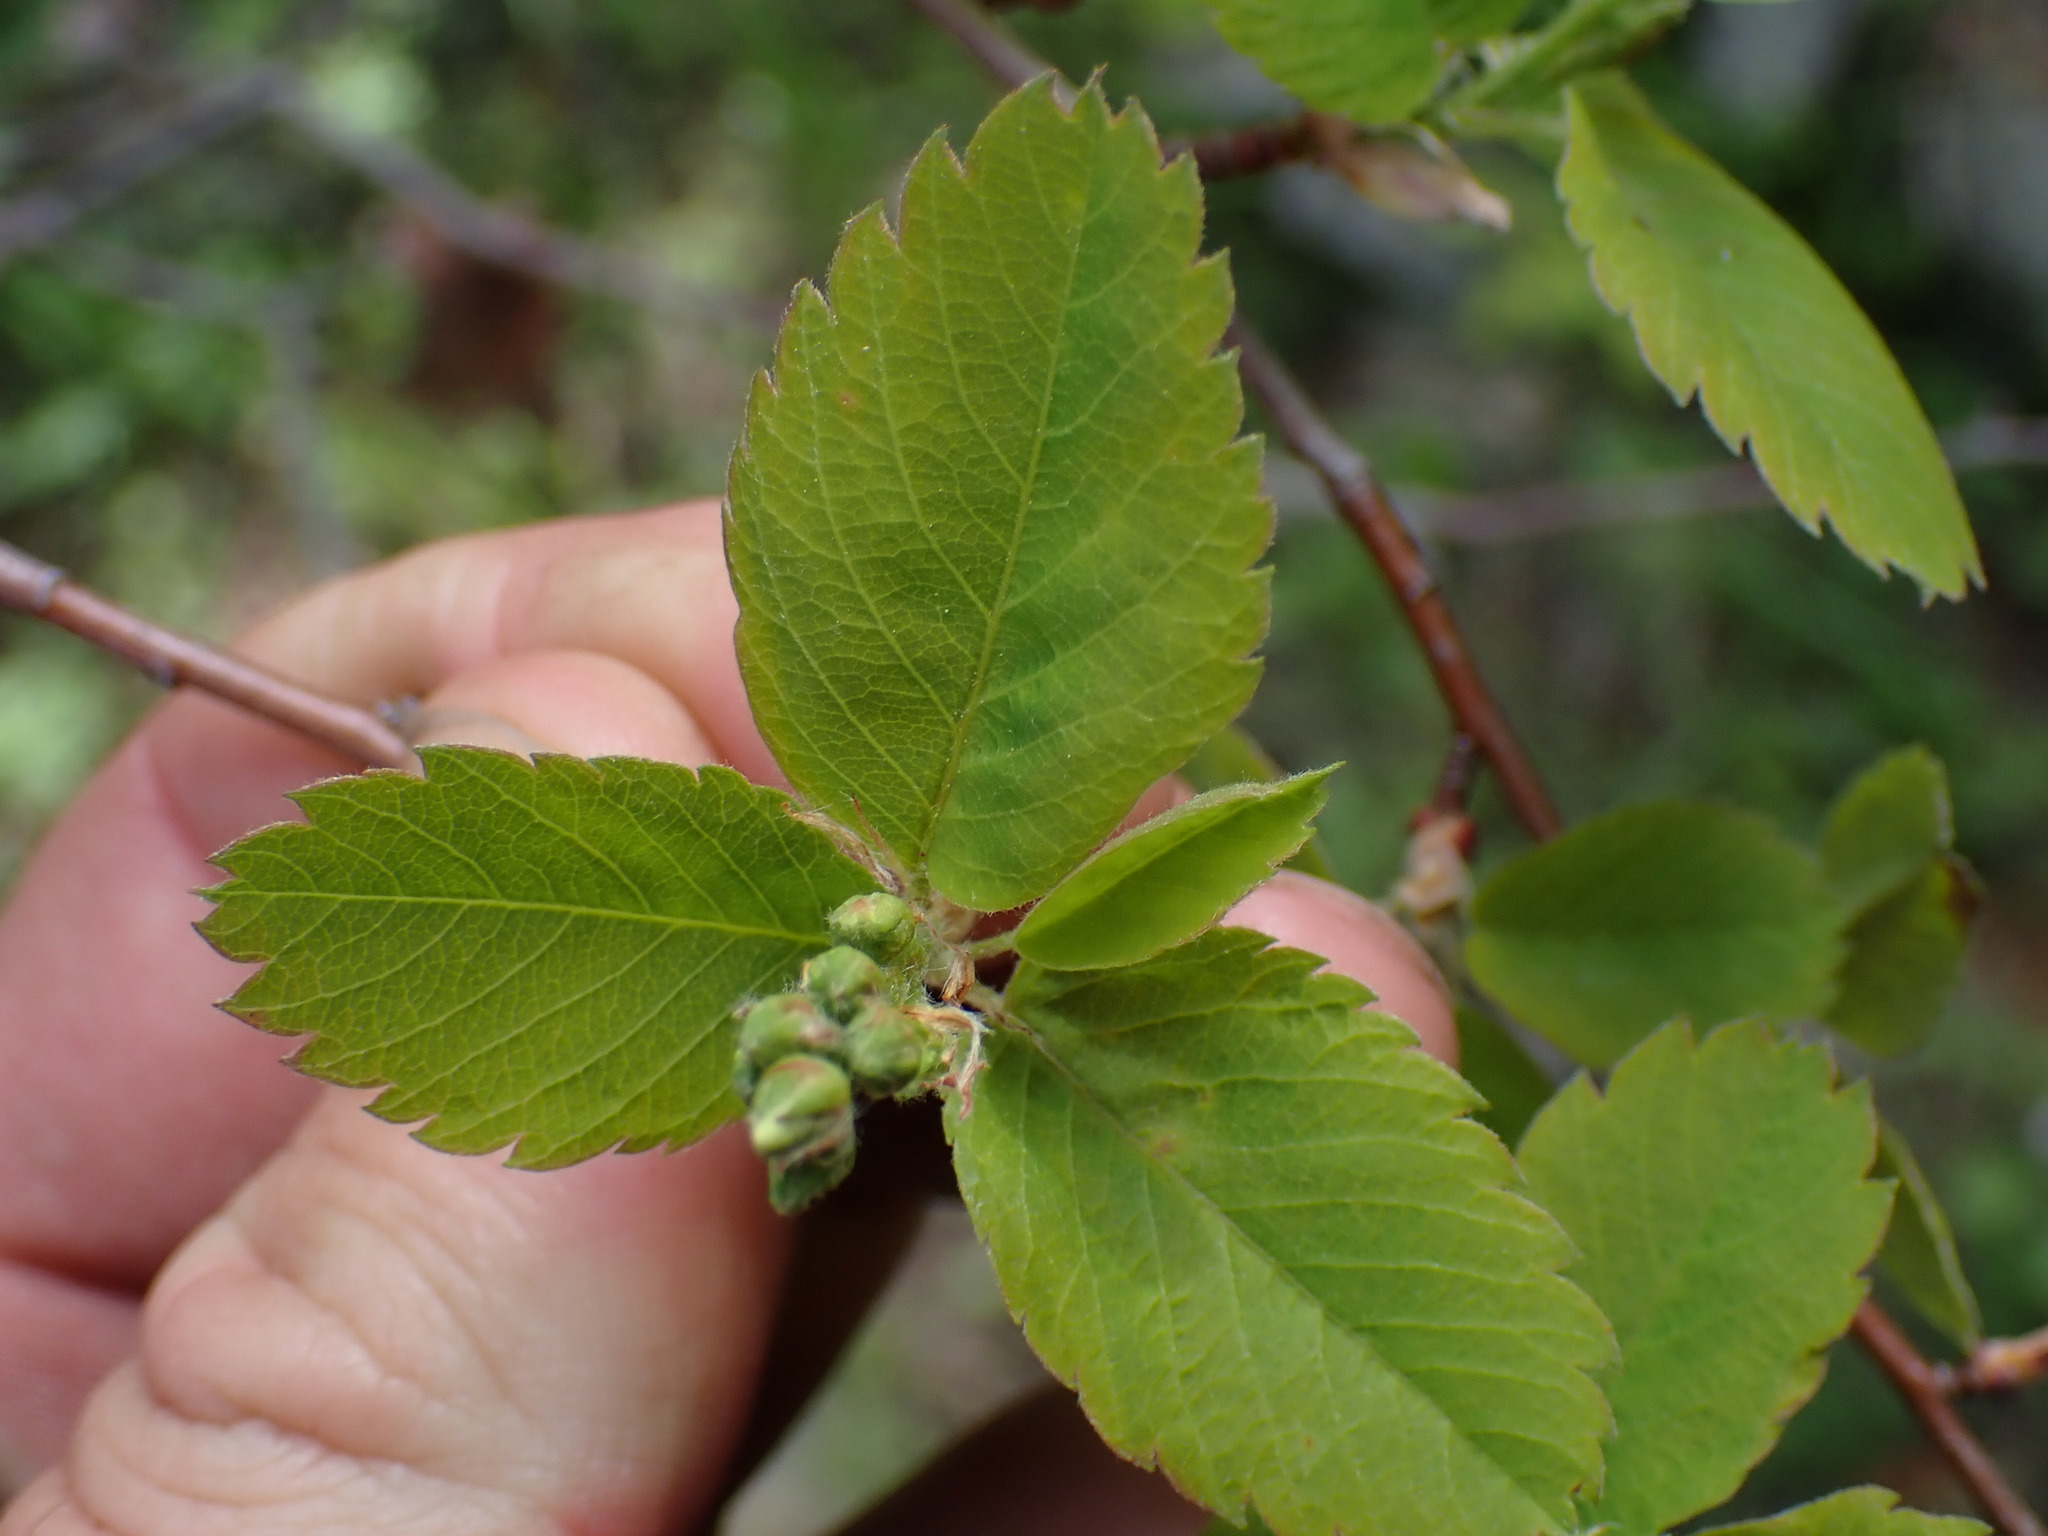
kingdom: Plantae
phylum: Tracheophyta
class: Magnoliopsida
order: Rosales
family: Rosaceae
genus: Amelanchier
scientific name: Amelanchier alnifolia
